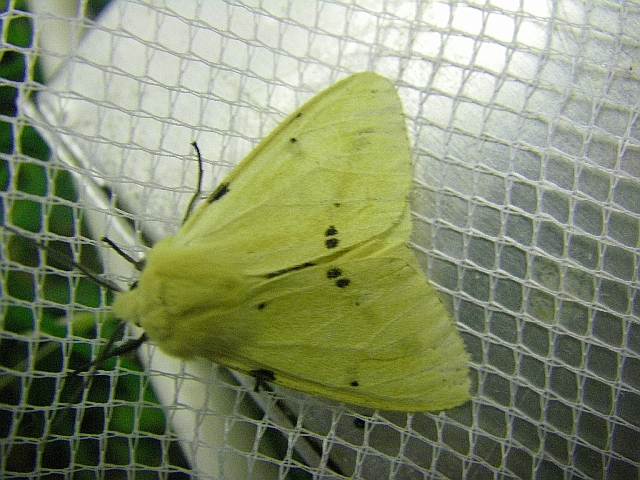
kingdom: Animalia
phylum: Arthropoda
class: Insecta
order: Lepidoptera
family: Erebidae
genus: Spilarctia
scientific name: Spilarctia lutea
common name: Buff ermine
